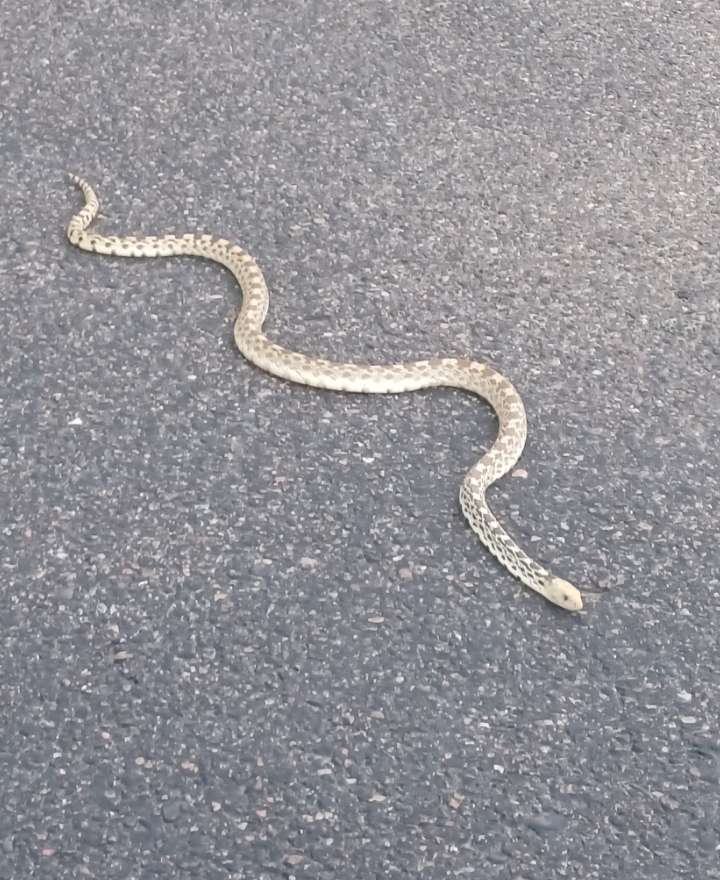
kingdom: Animalia
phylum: Chordata
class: Squamata
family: Colubridae
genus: Pituophis
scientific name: Pituophis catenifer
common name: Gopher snake
